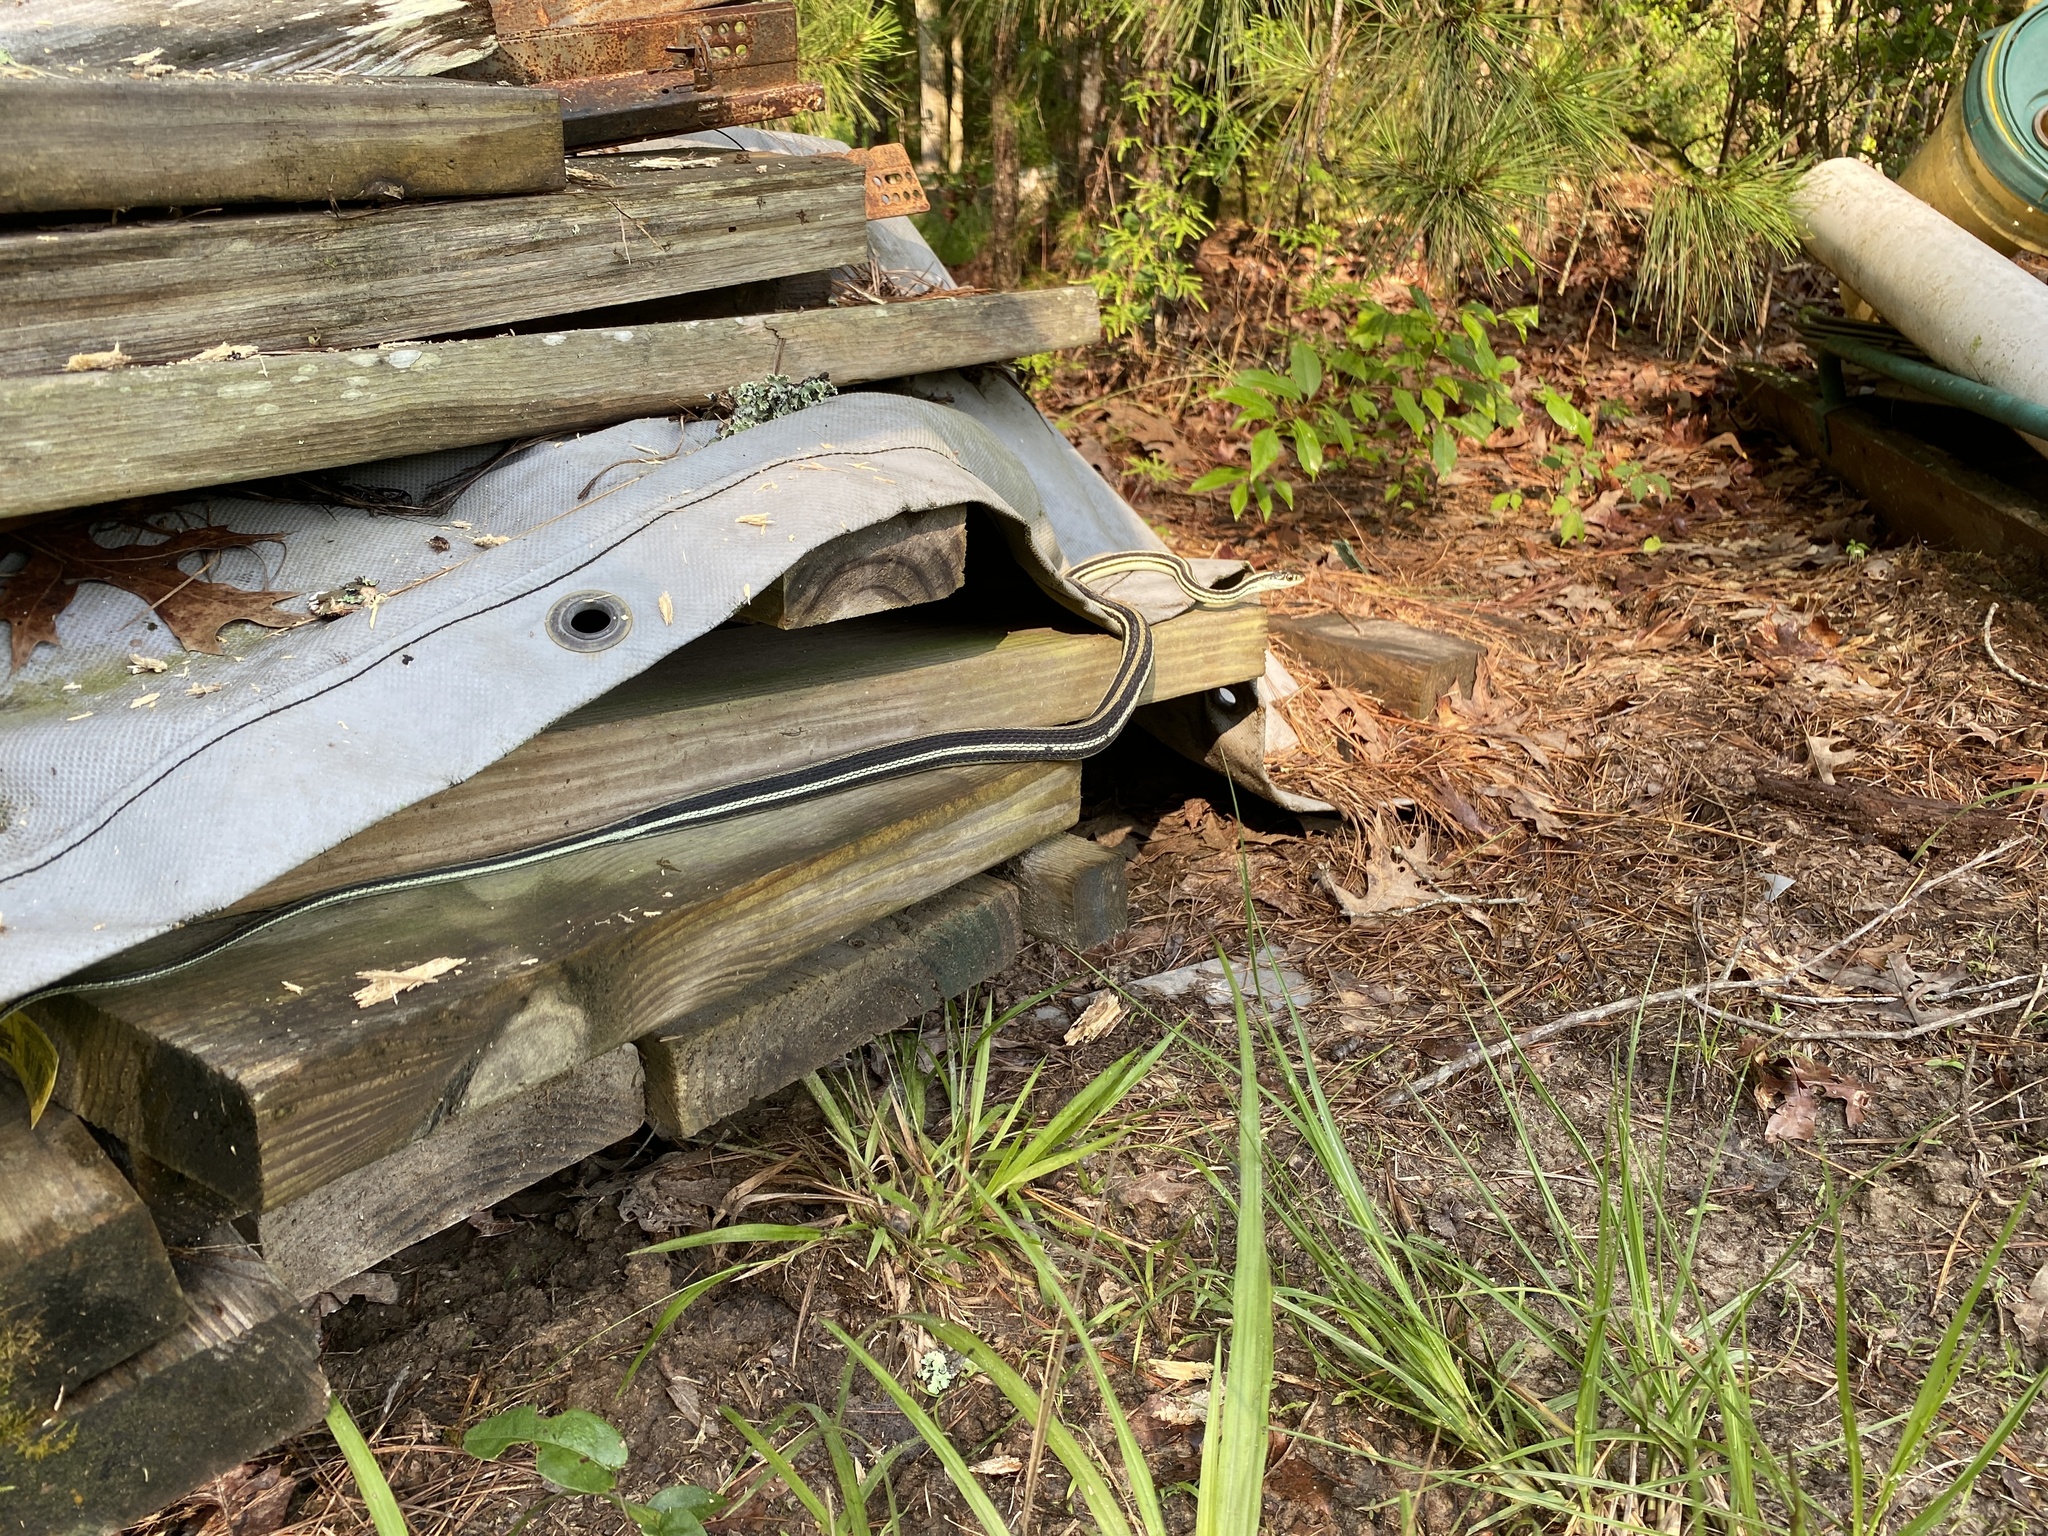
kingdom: Animalia
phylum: Chordata
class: Squamata
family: Colubridae
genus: Thamnophis
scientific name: Thamnophis proximus
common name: Western ribbon snake
